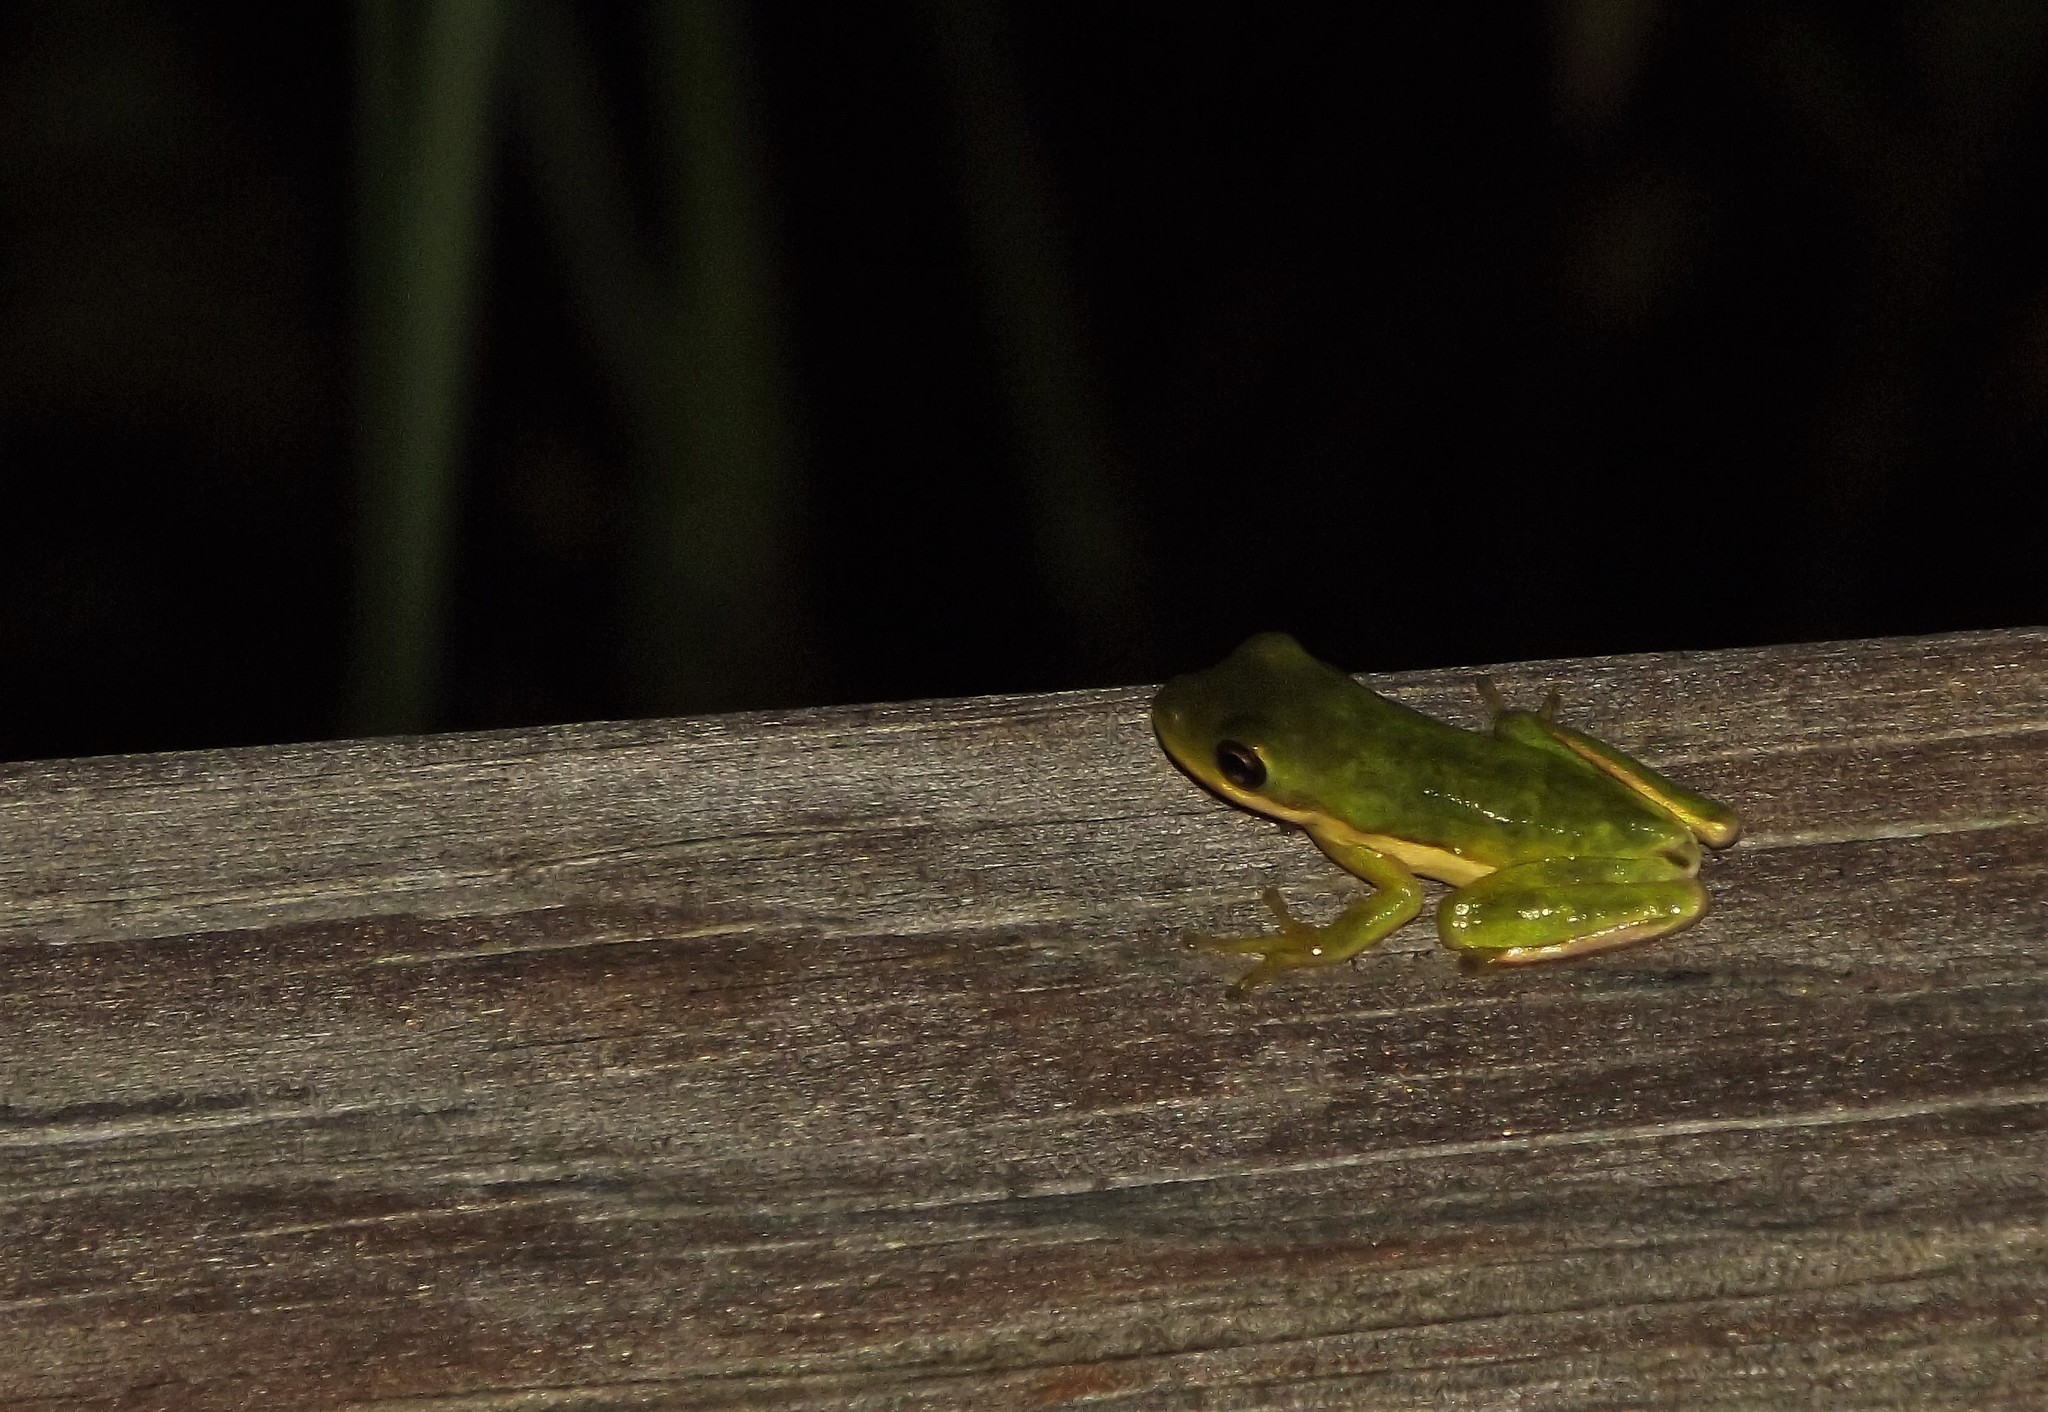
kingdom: Animalia
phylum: Chordata
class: Amphibia
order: Anura
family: Hylidae
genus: Dryophytes
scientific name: Dryophytes cinereus
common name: Green treefrog
